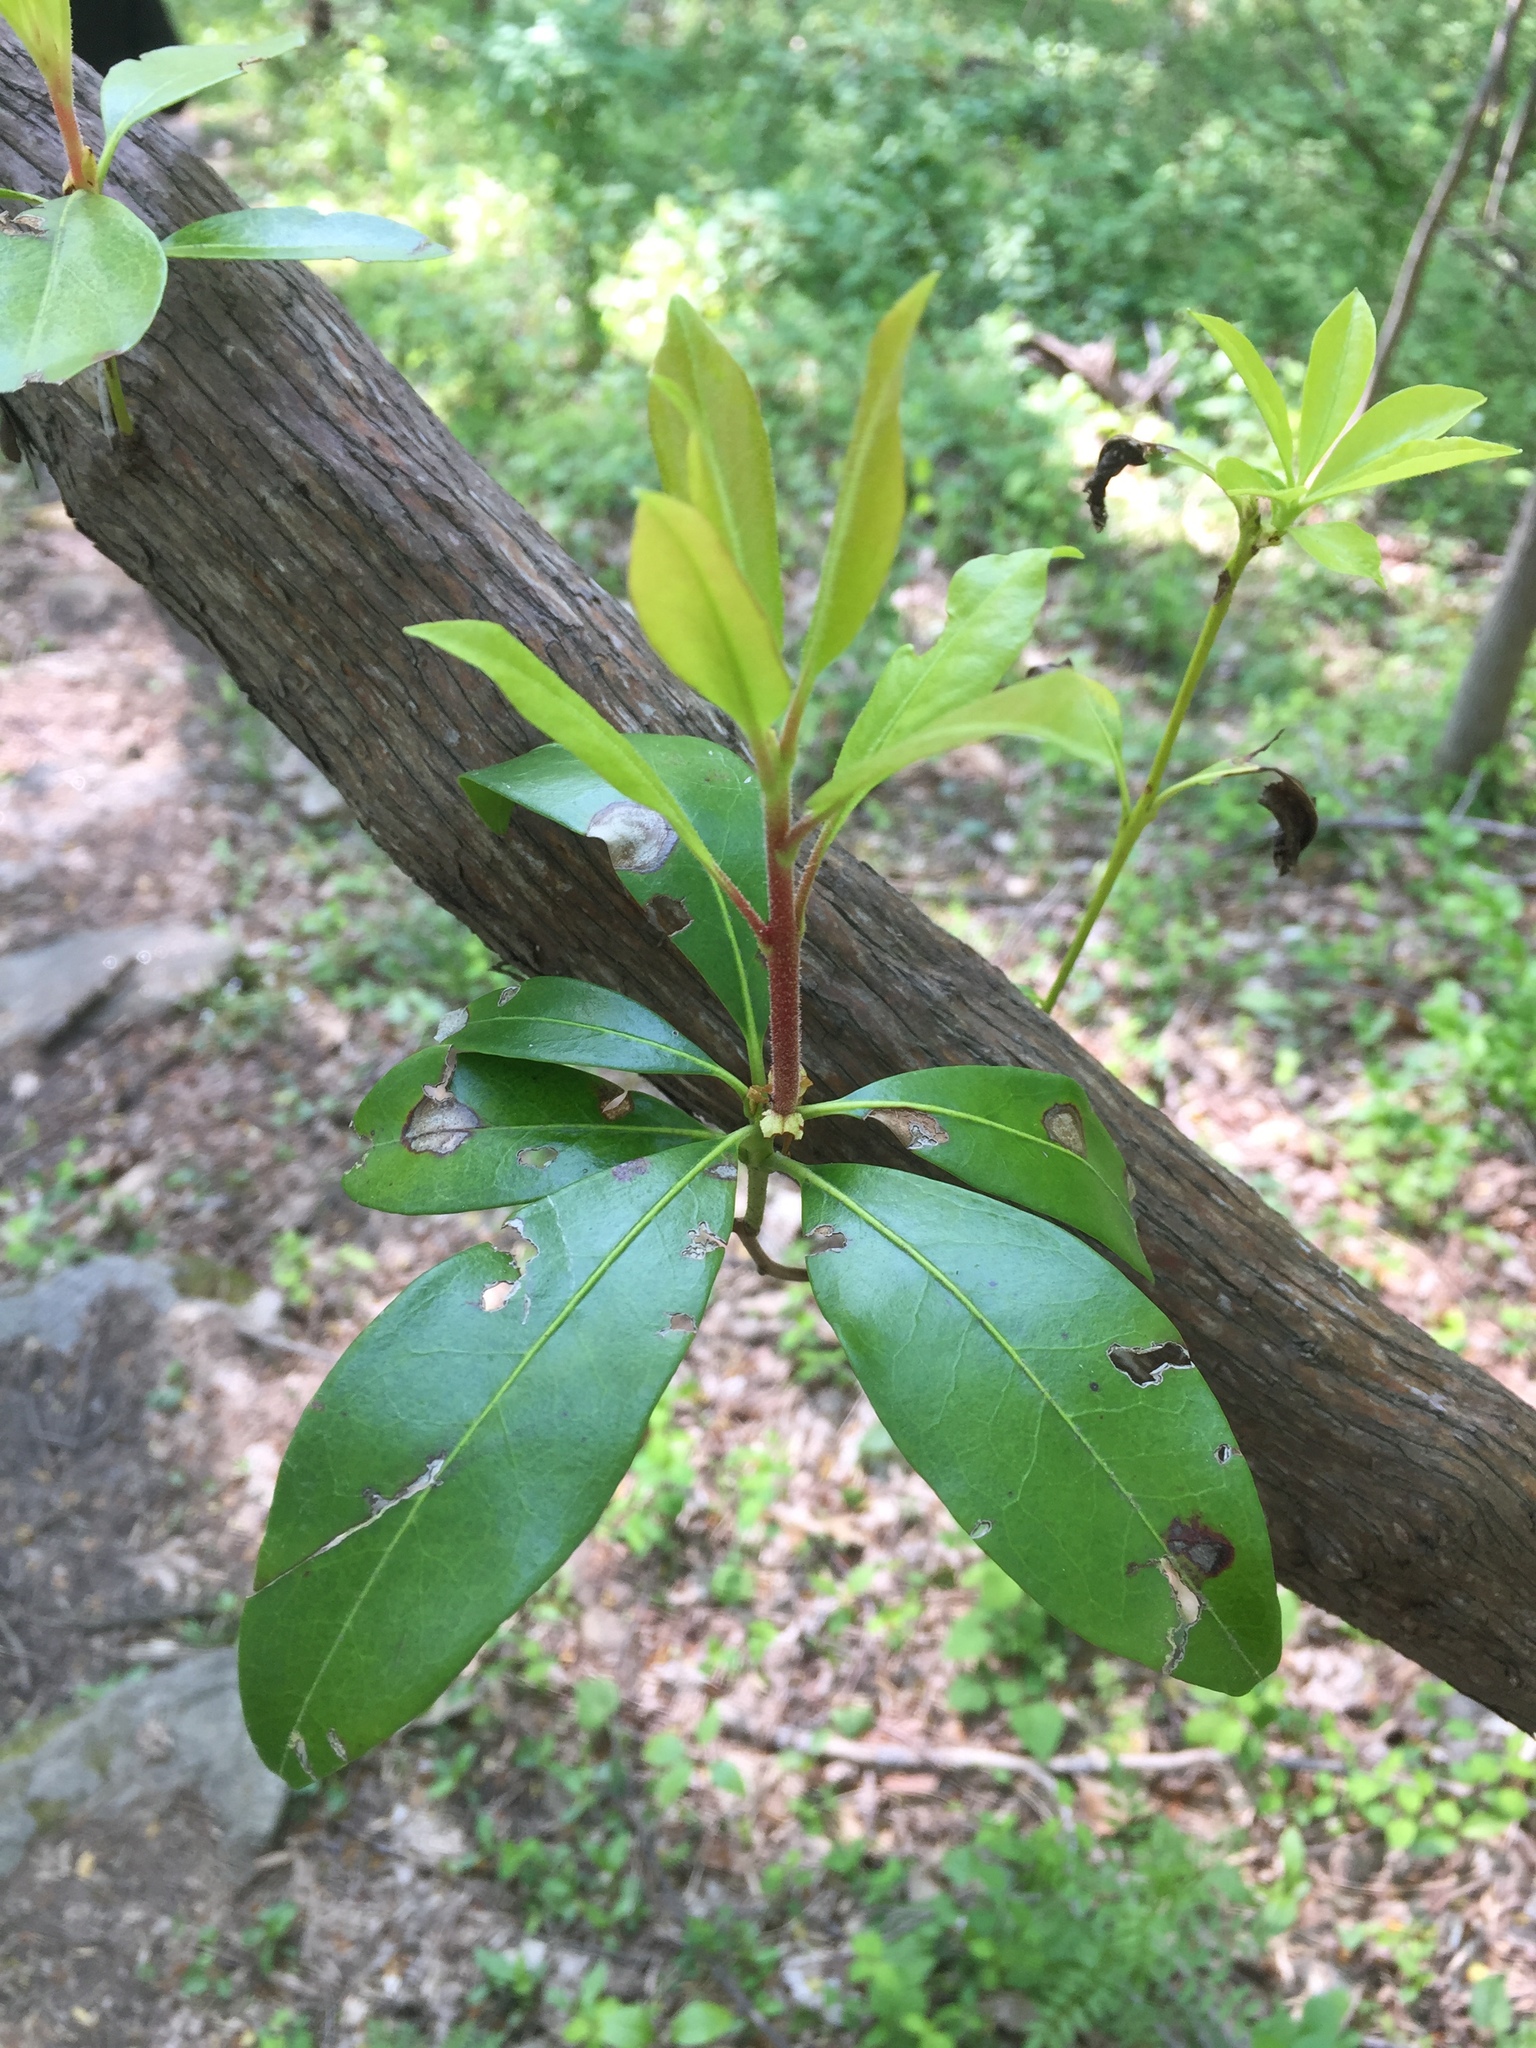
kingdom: Plantae
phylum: Tracheophyta
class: Magnoliopsida
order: Ericales
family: Ericaceae
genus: Kalmia
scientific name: Kalmia latifolia
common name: Mountain-laurel
